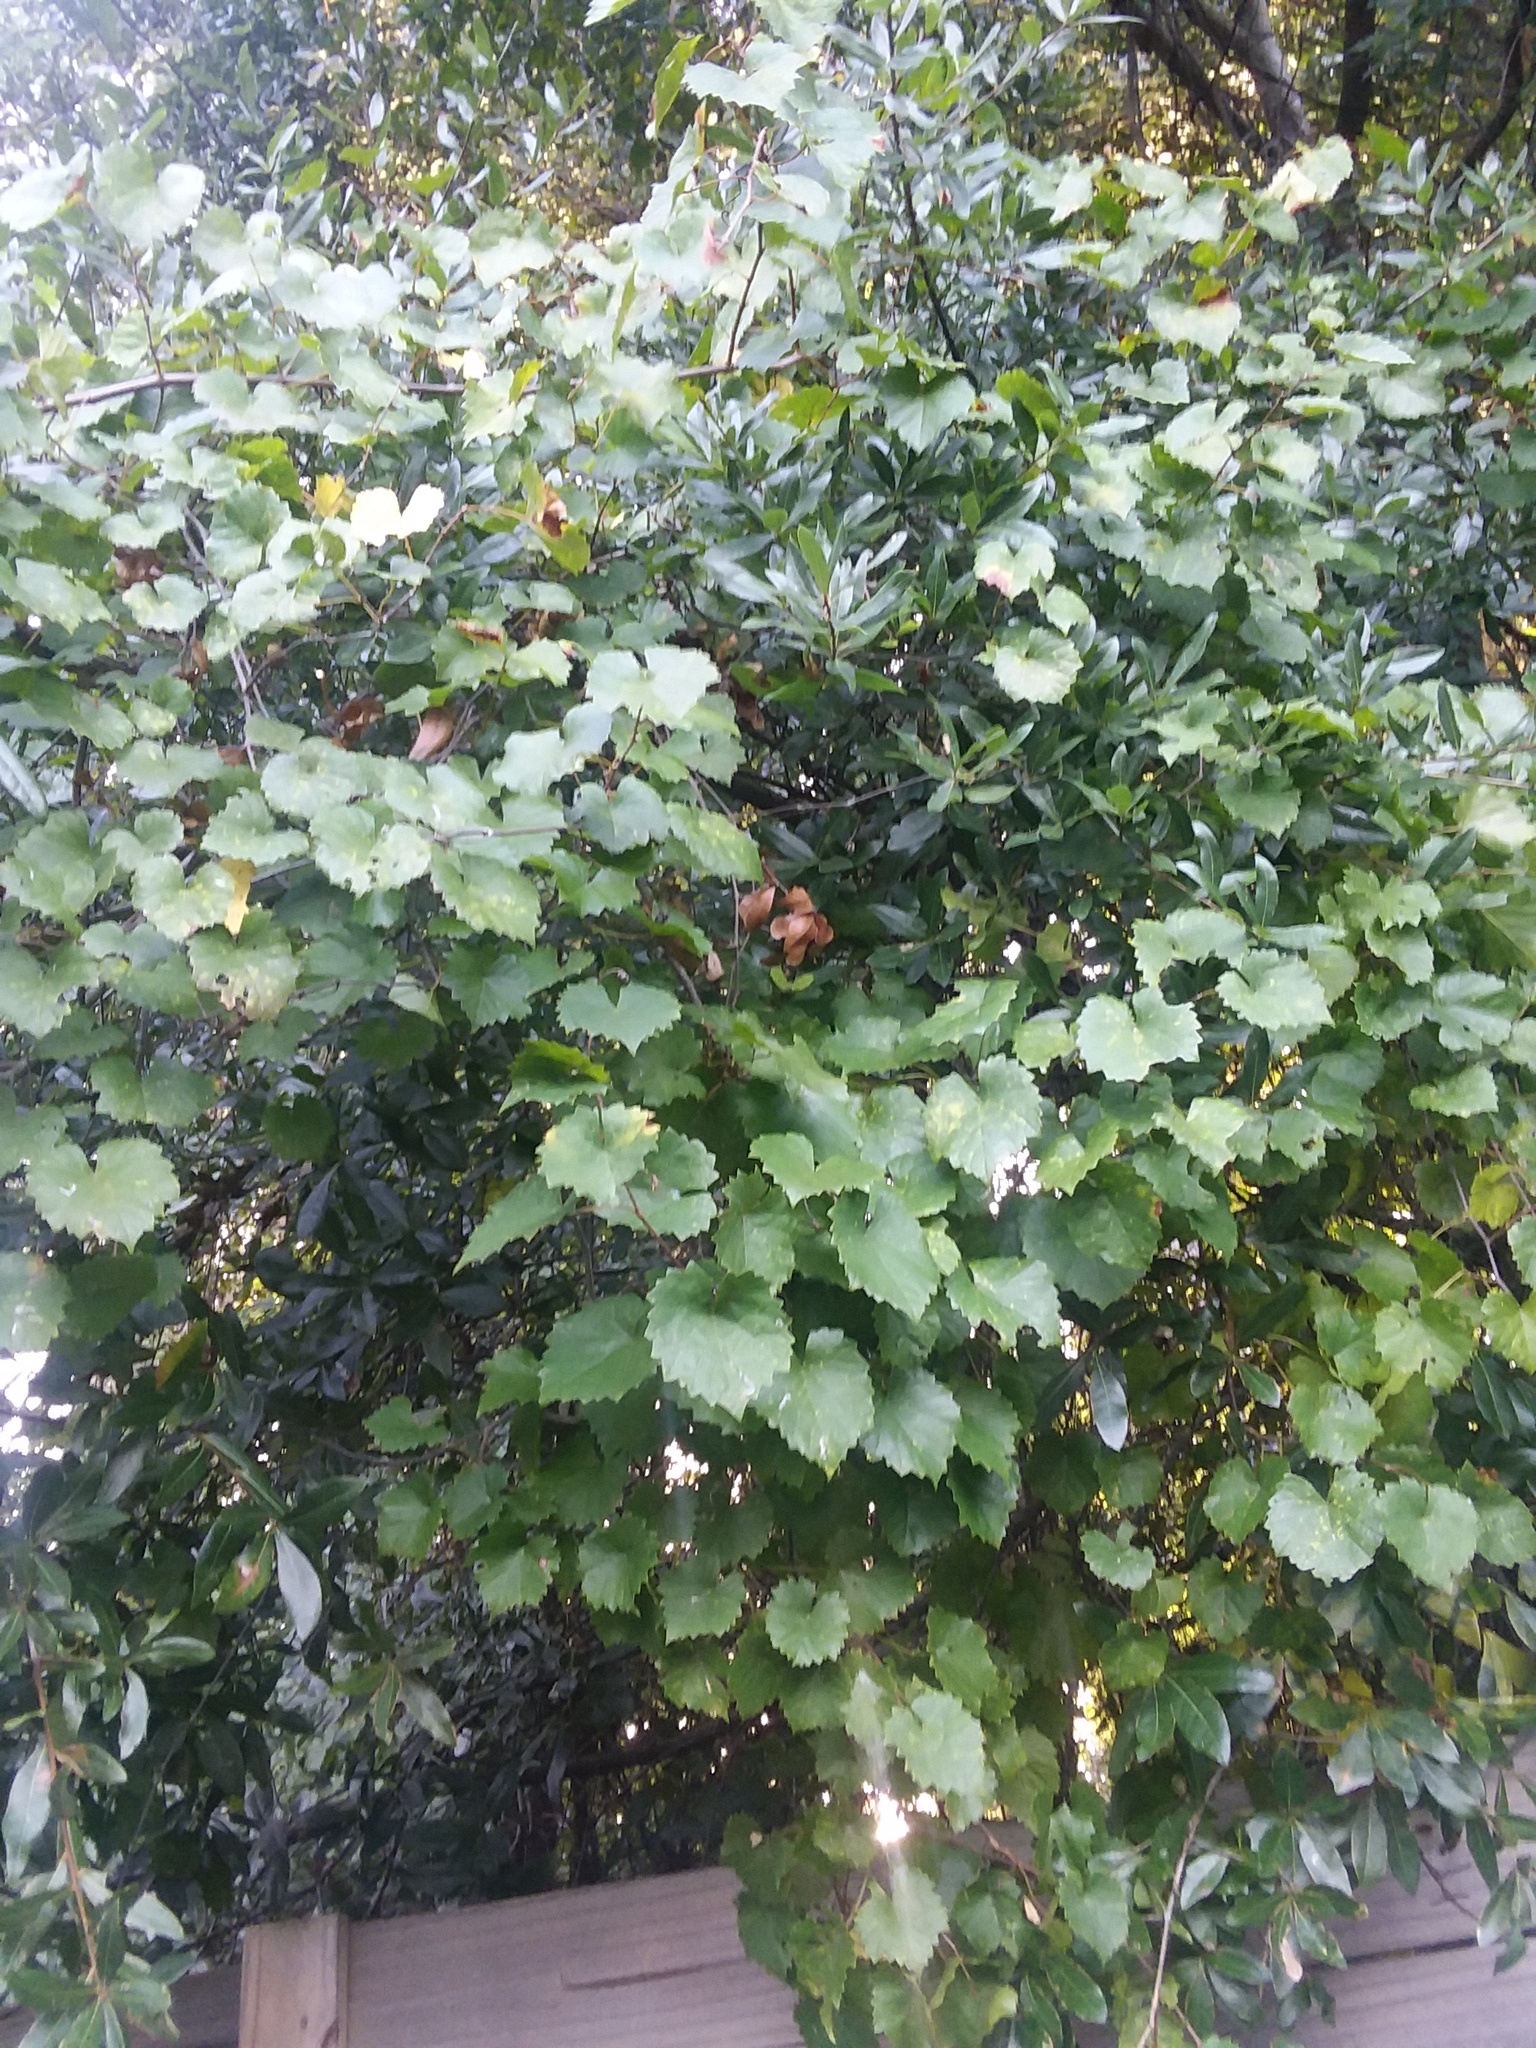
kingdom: Plantae
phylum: Tracheophyta
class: Magnoliopsida
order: Vitales
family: Vitaceae
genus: Vitis
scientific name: Vitis rotundifolia
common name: Muscadine grape
